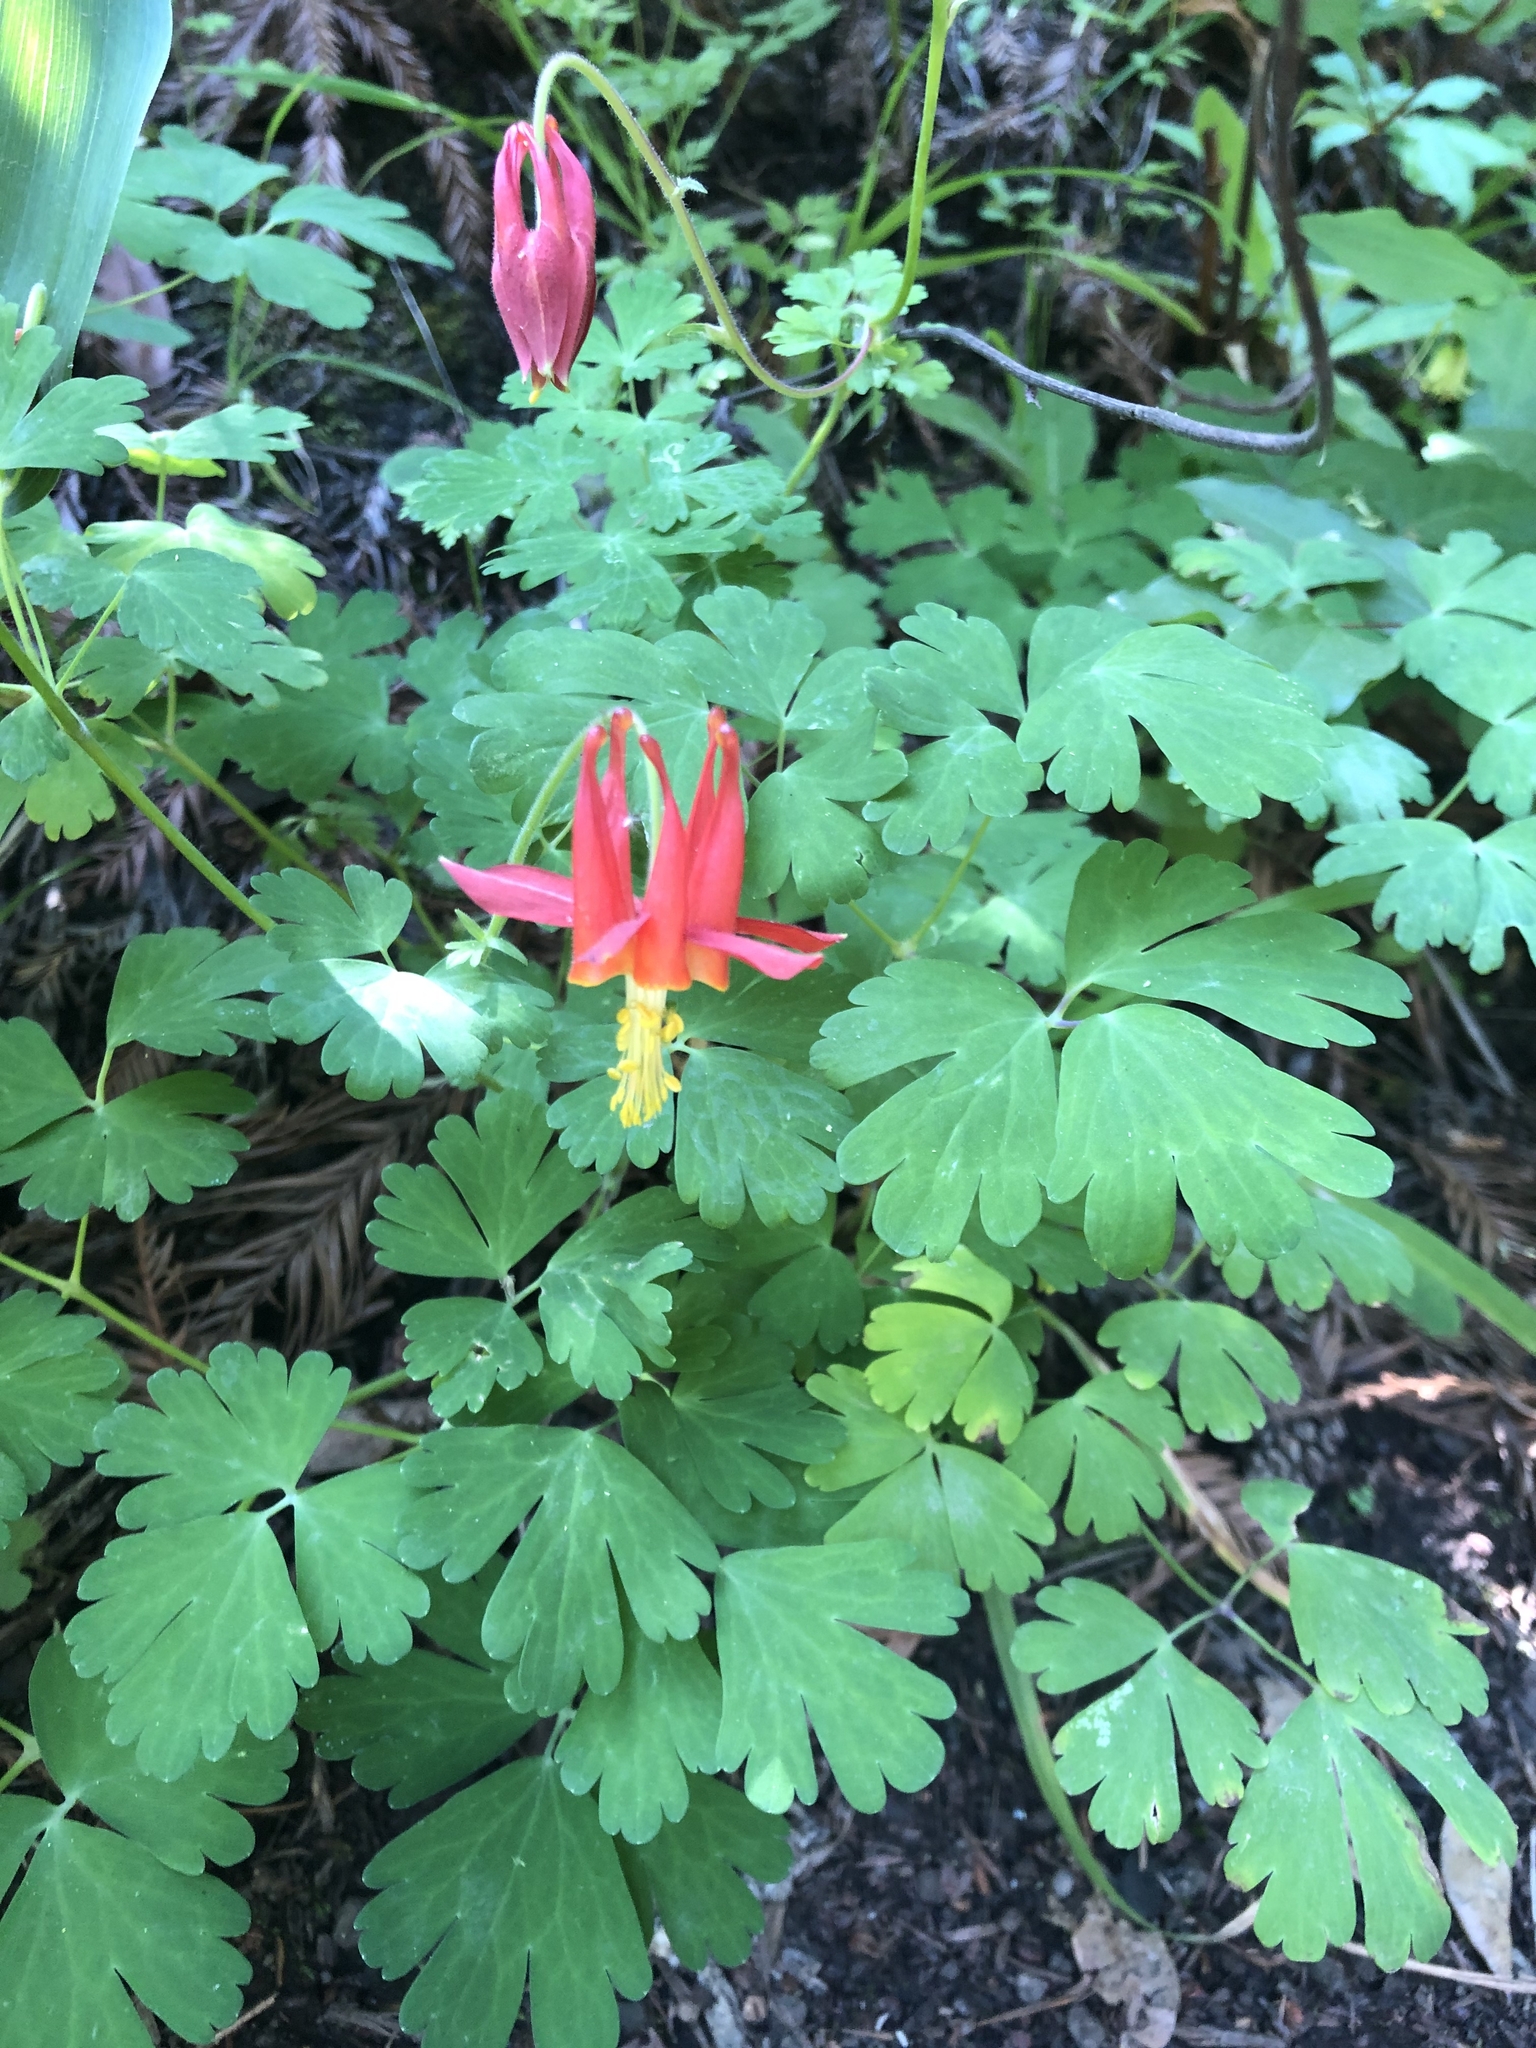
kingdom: Plantae
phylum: Tracheophyta
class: Magnoliopsida
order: Ranunculales
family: Ranunculaceae
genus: Aquilegia
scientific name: Aquilegia formosa
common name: Sitka columbine
